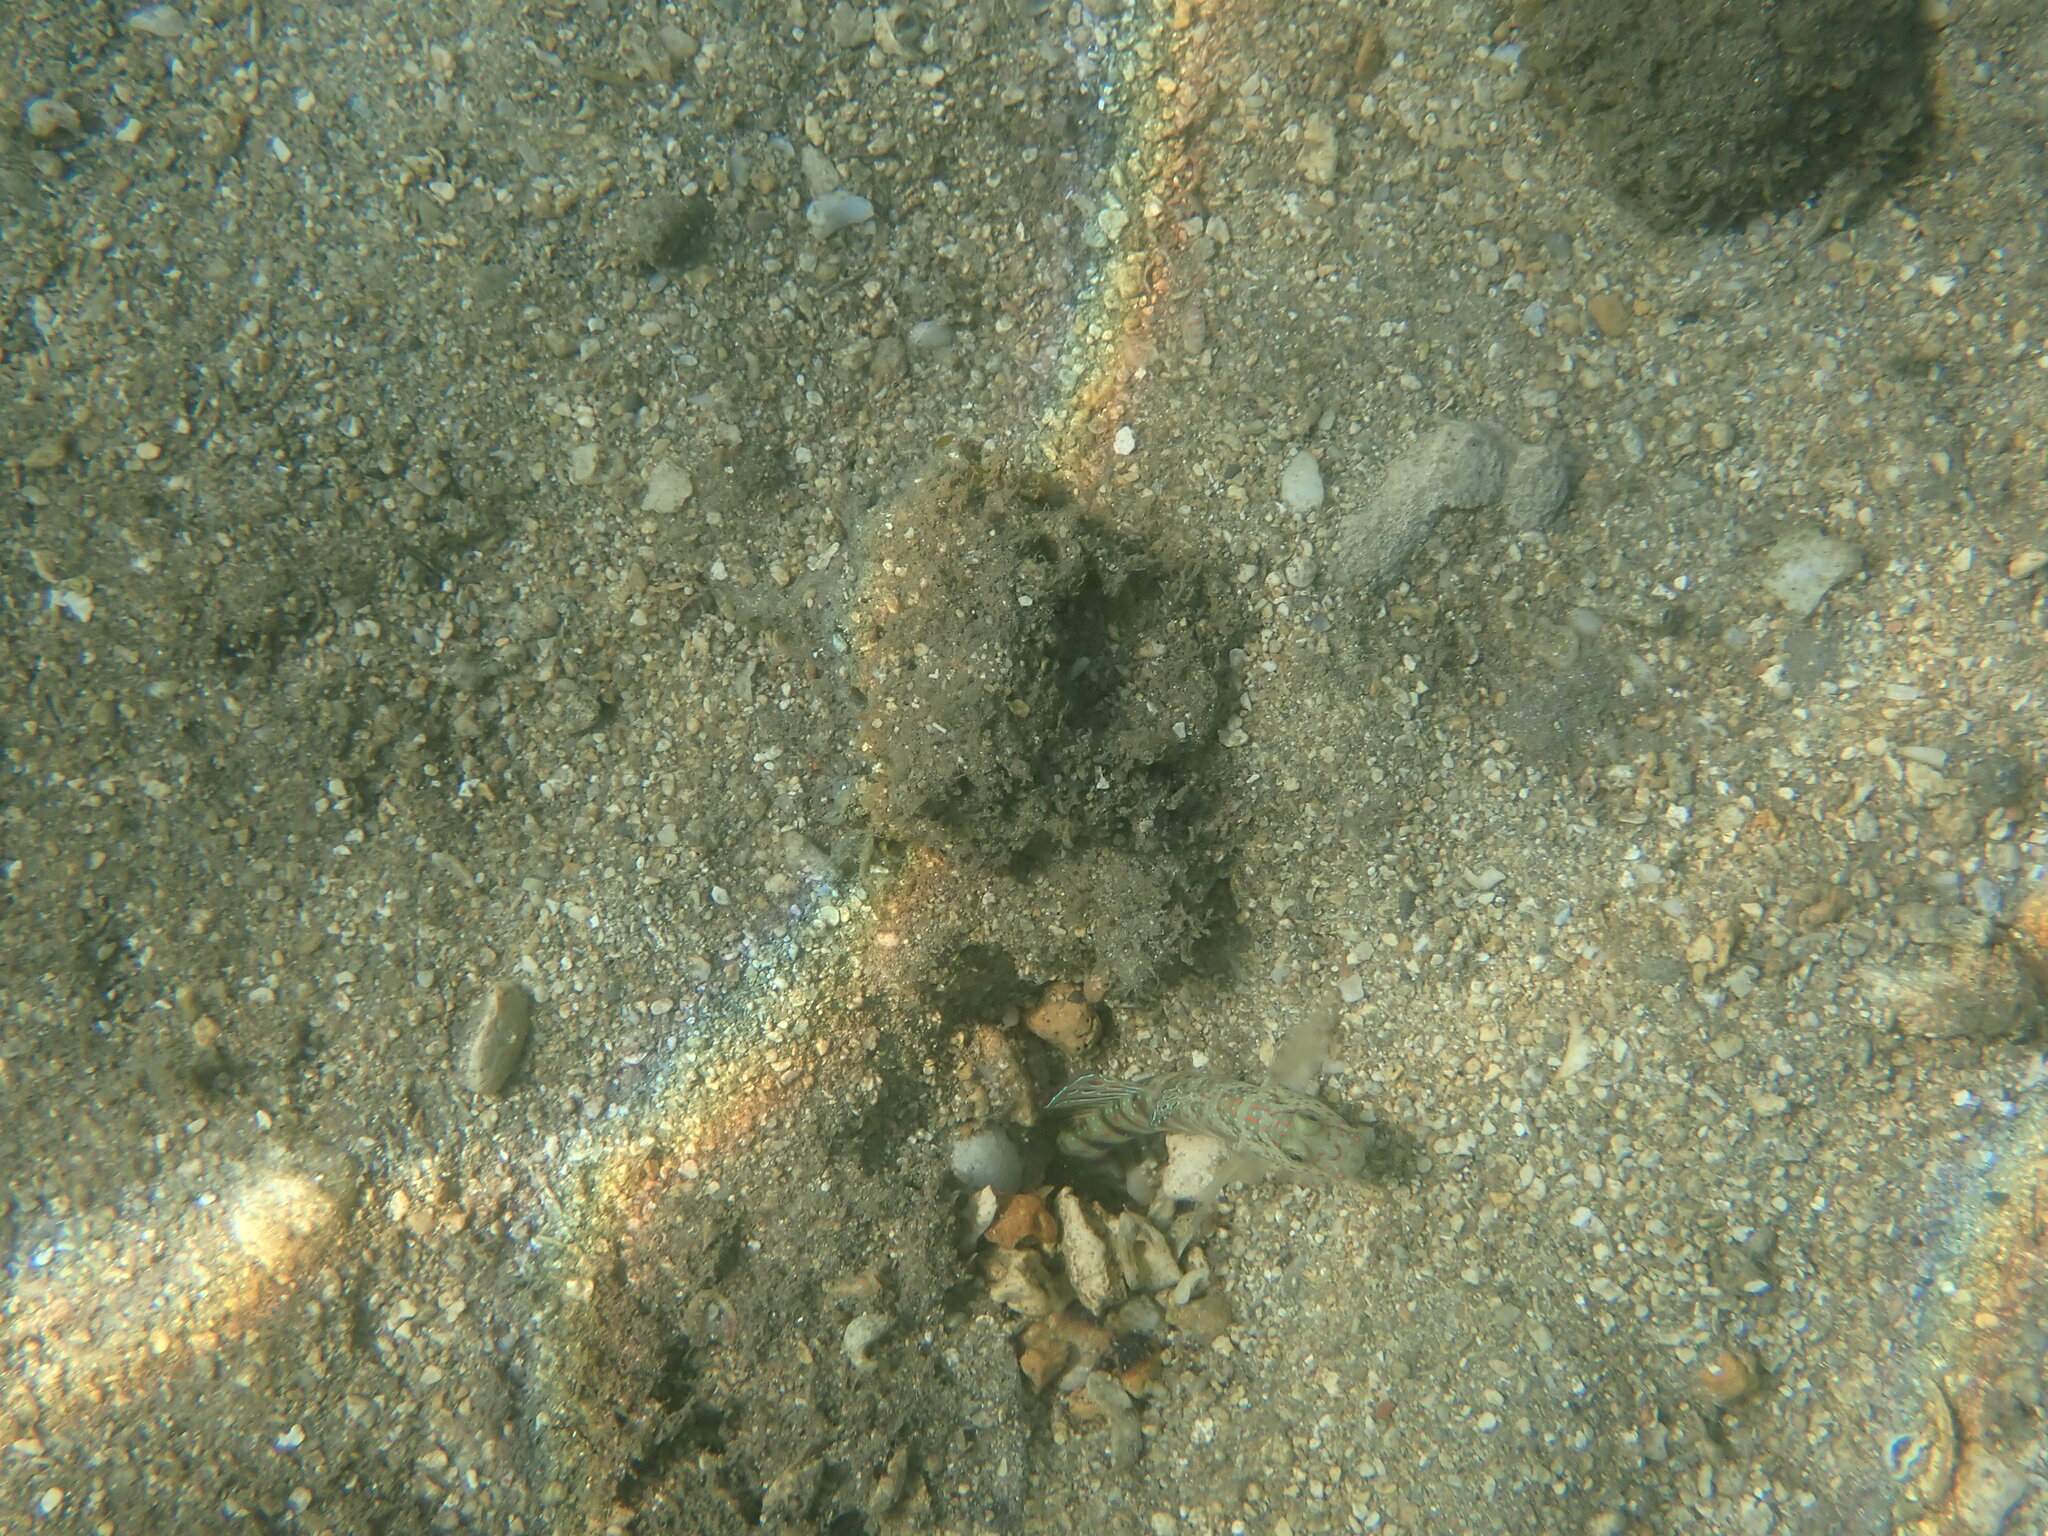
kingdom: Animalia
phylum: Chordata
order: Perciformes
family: Gobiidae
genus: Cryptocentrus
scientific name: Cryptocentrus leptocephalus
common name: Leptocephalus prawn-goby
